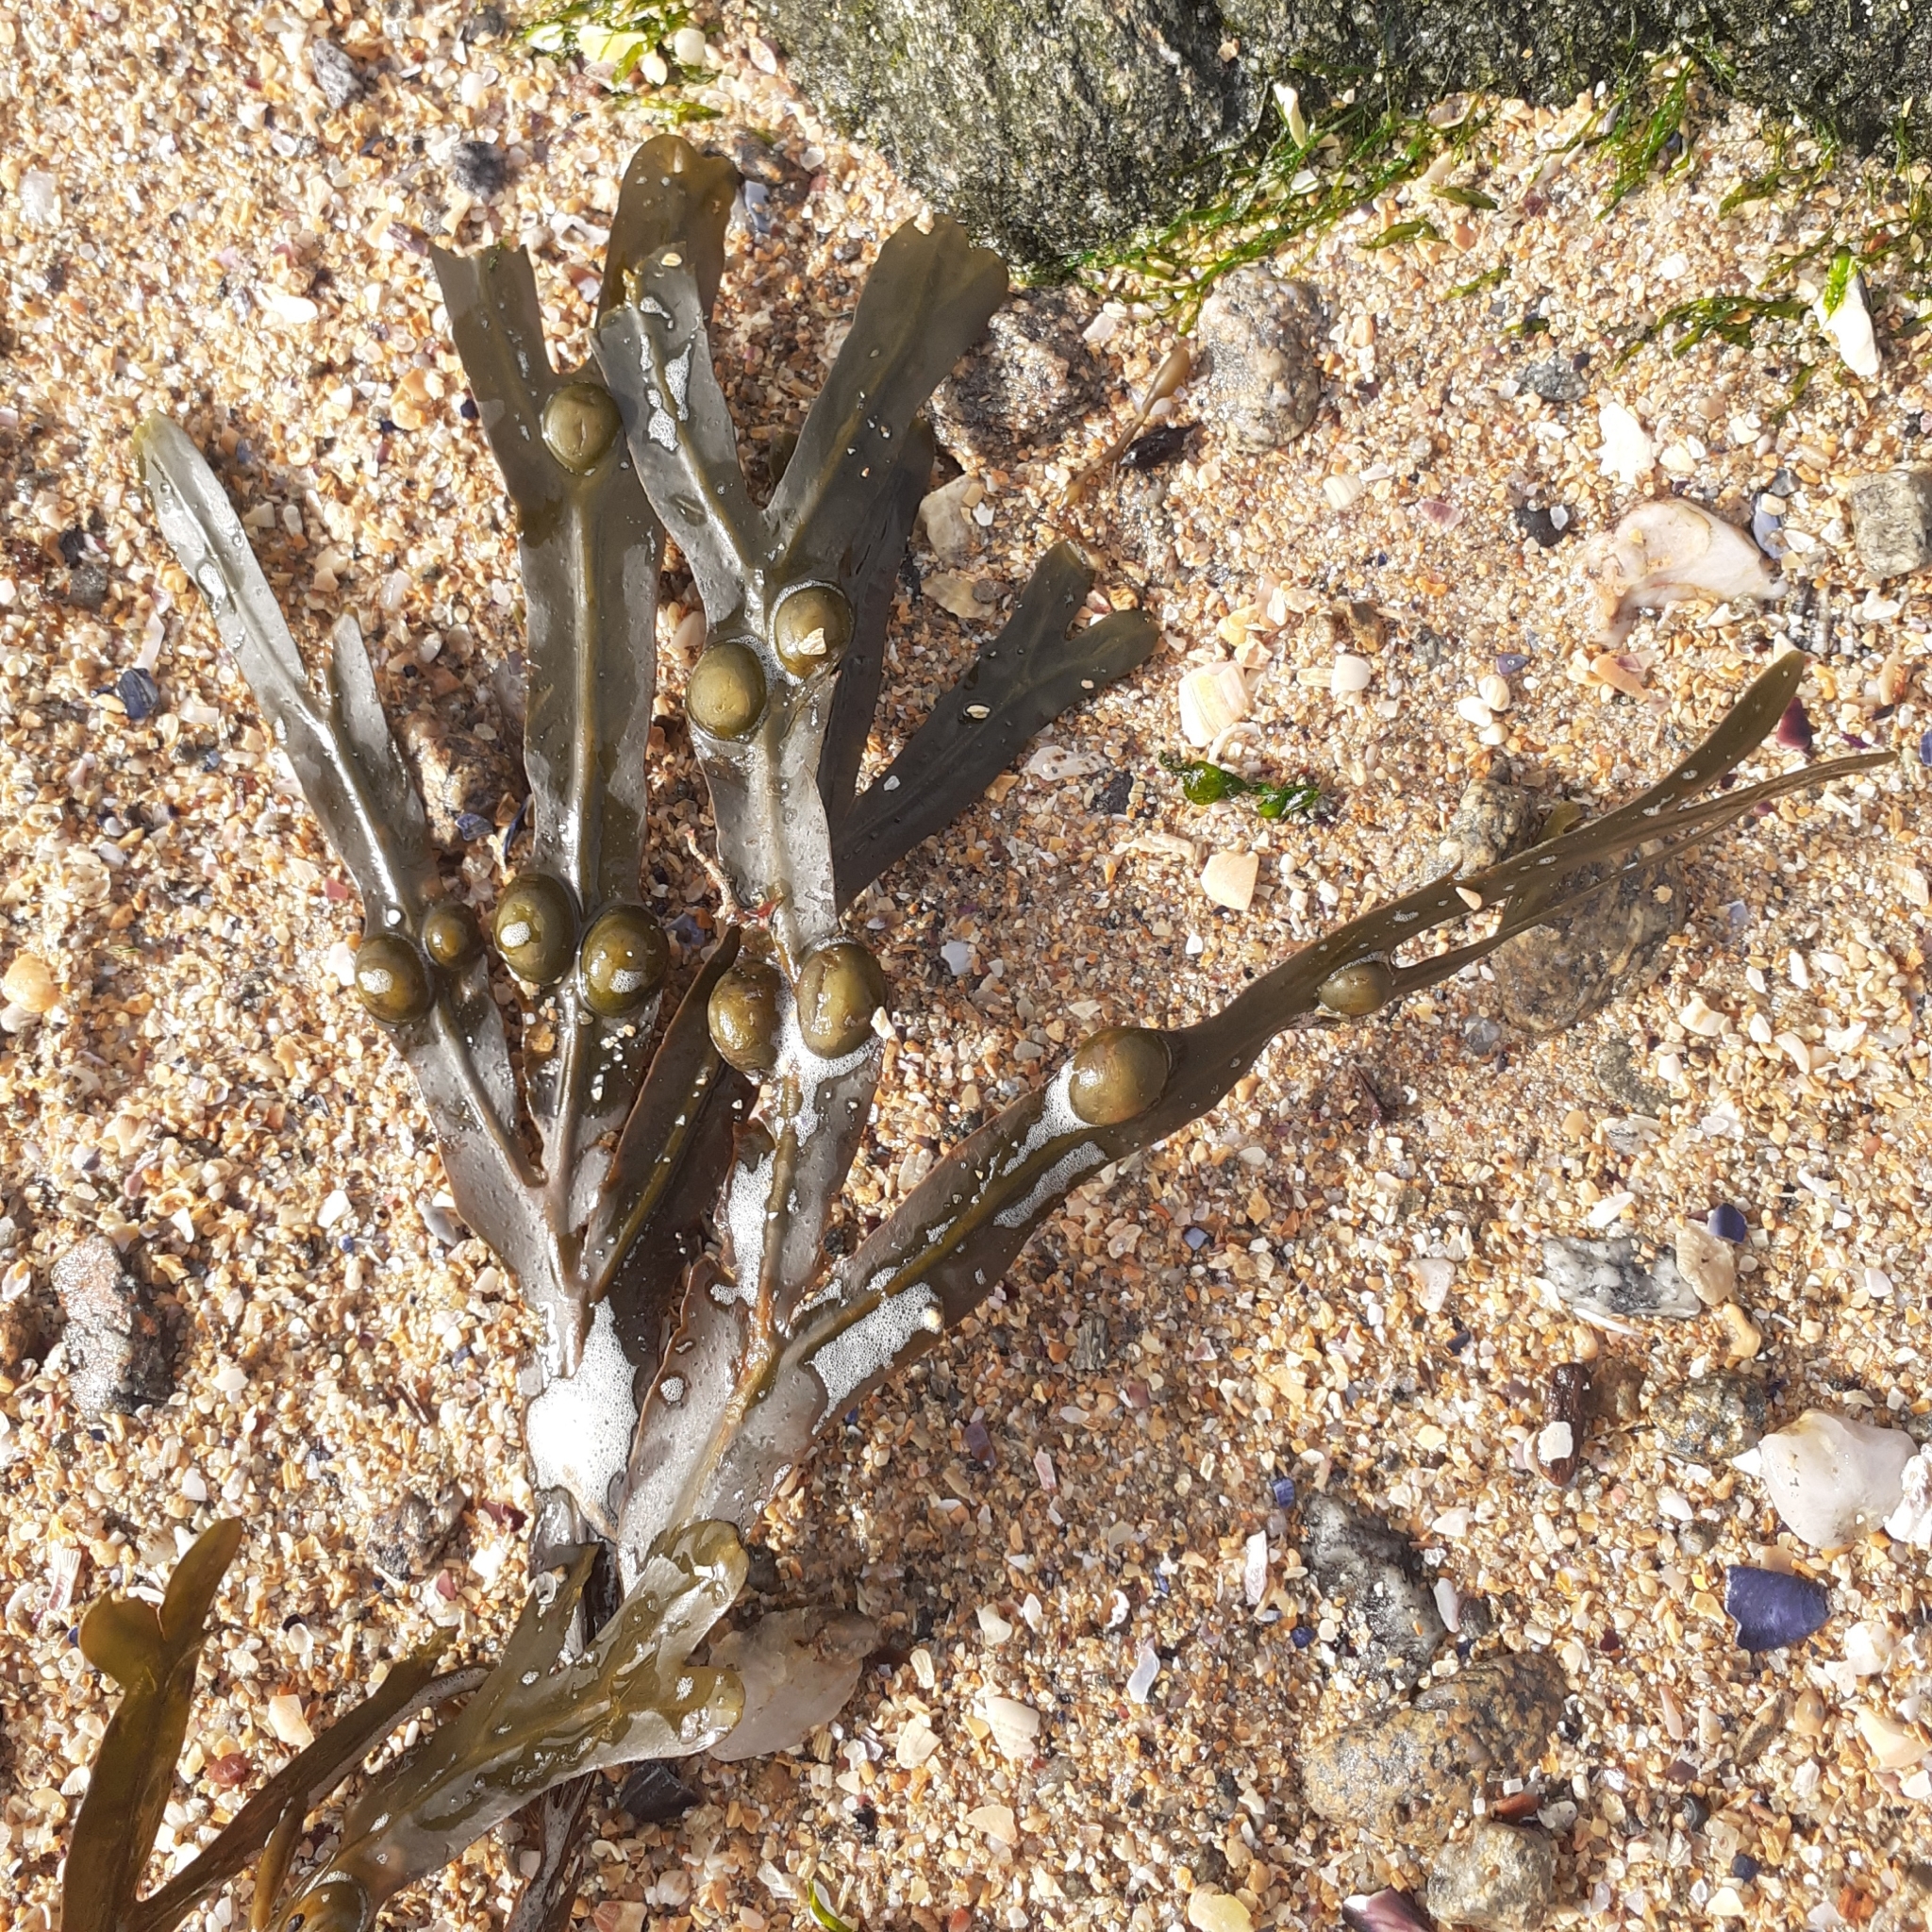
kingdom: Chromista
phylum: Ochrophyta
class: Phaeophyceae
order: Fucales
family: Fucaceae
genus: Fucus
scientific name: Fucus vesiculosus
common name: Bladder wrack
